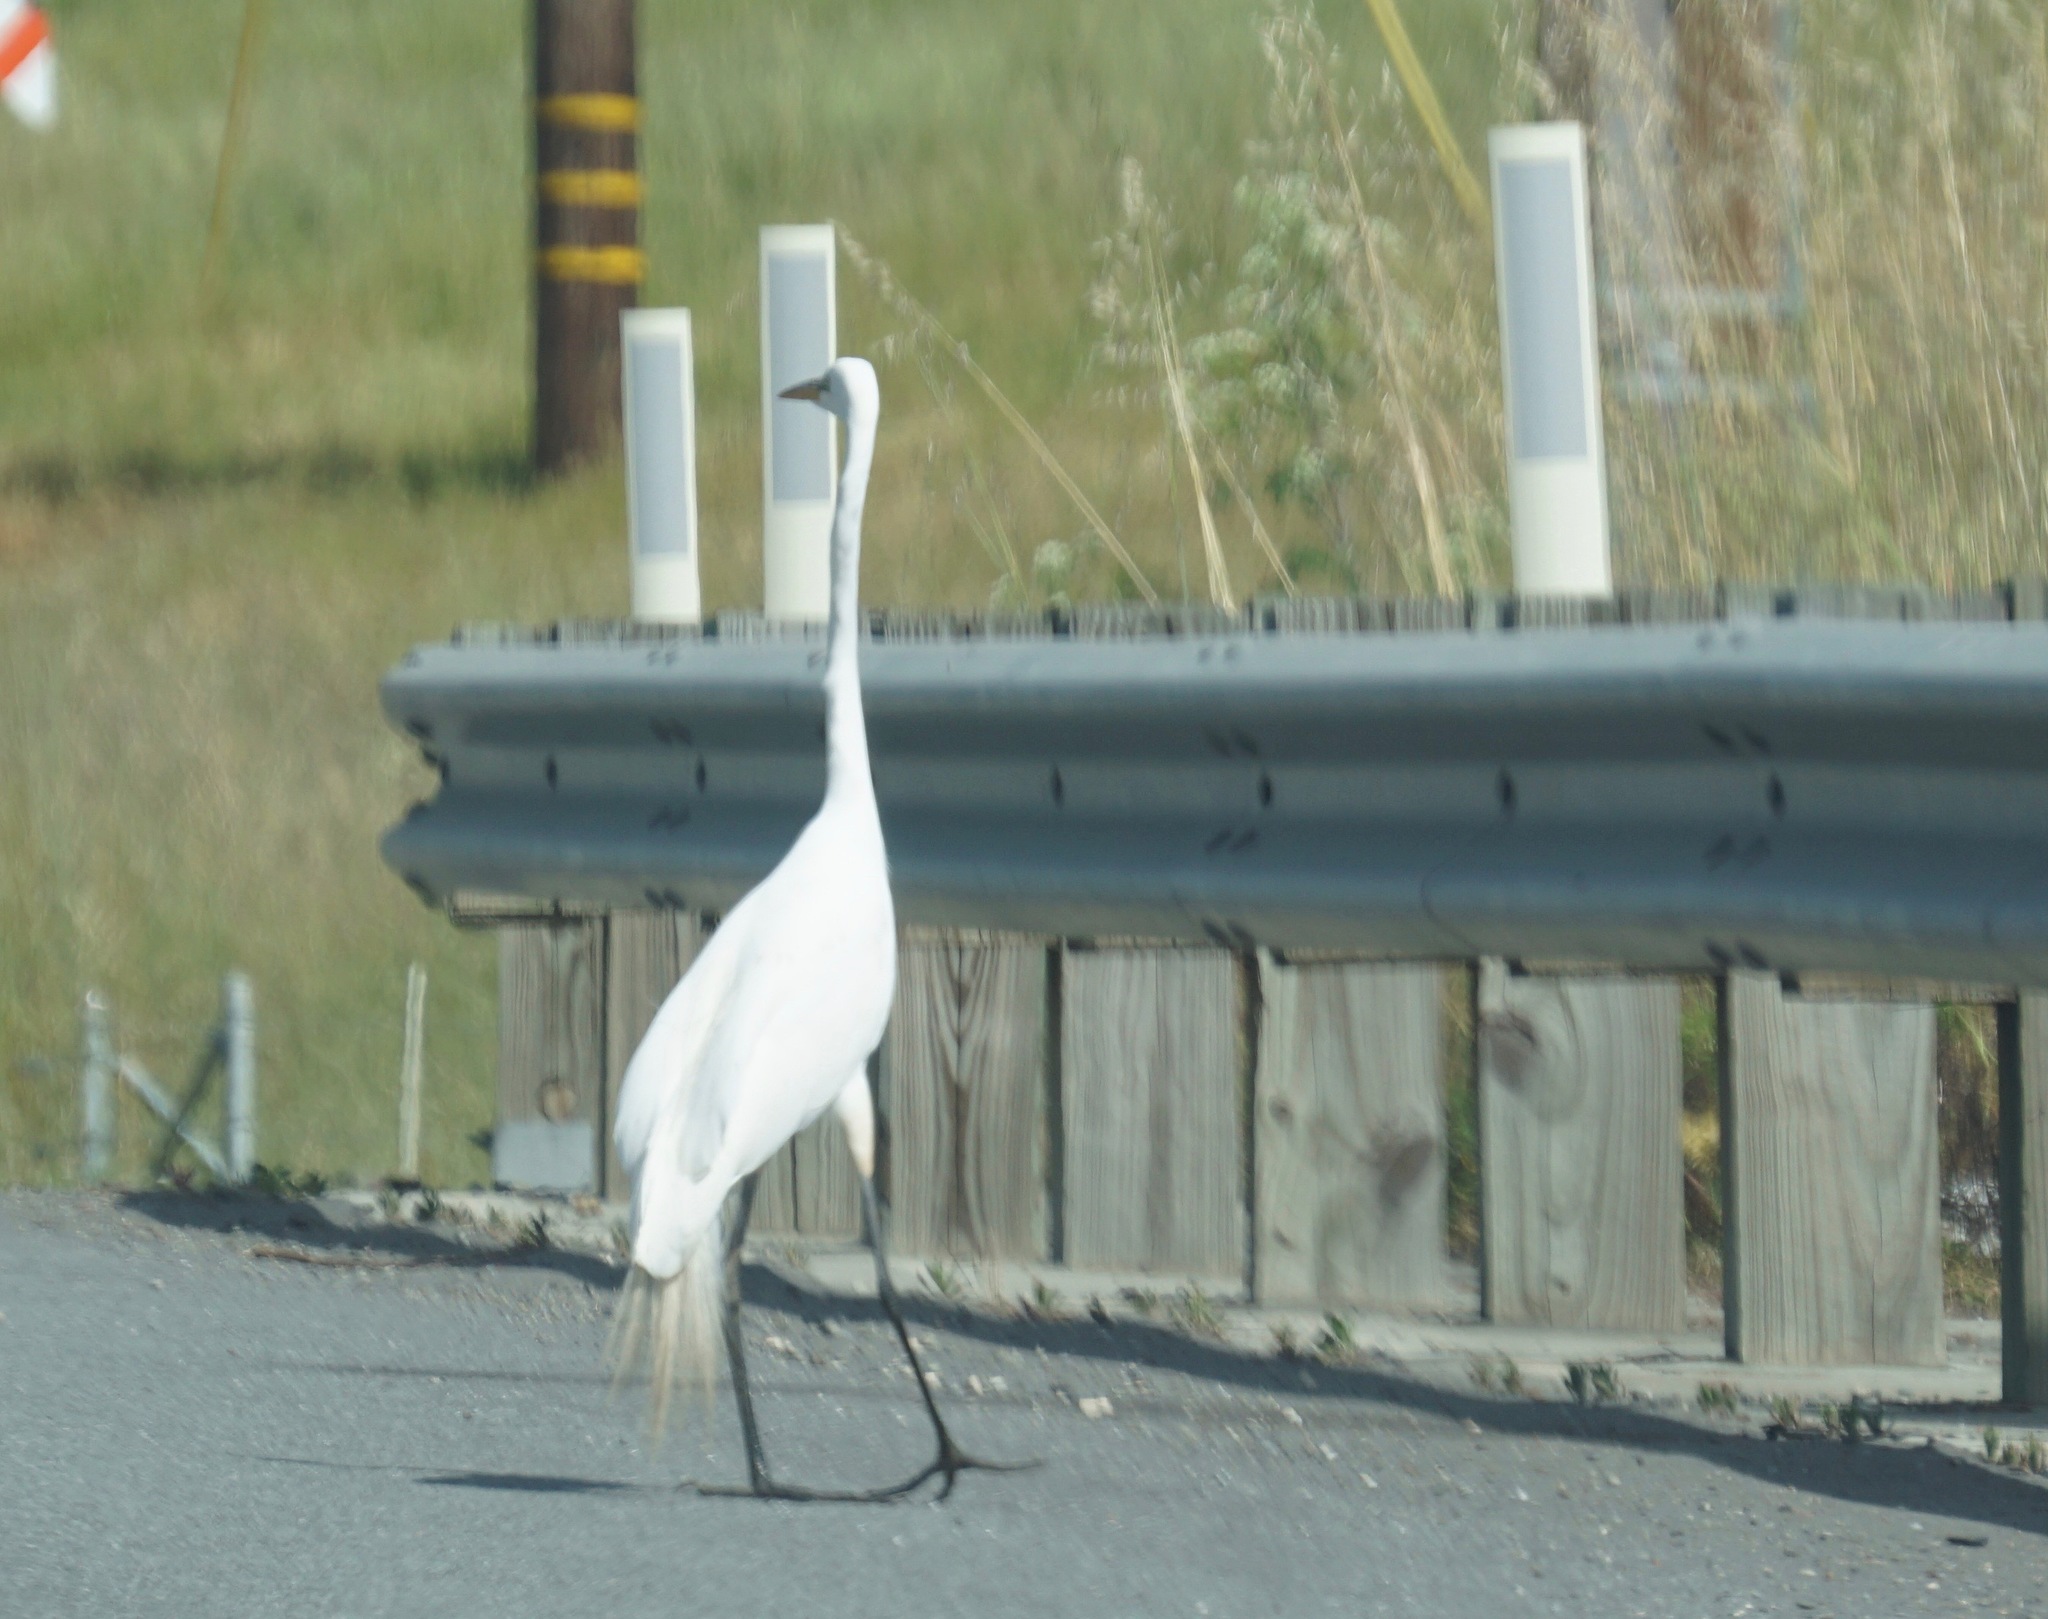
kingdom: Animalia
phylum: Chordata
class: Aves
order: Pelecaniformes
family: Ardeidae
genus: Ardea
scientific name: Ardea alba
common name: Great egret
